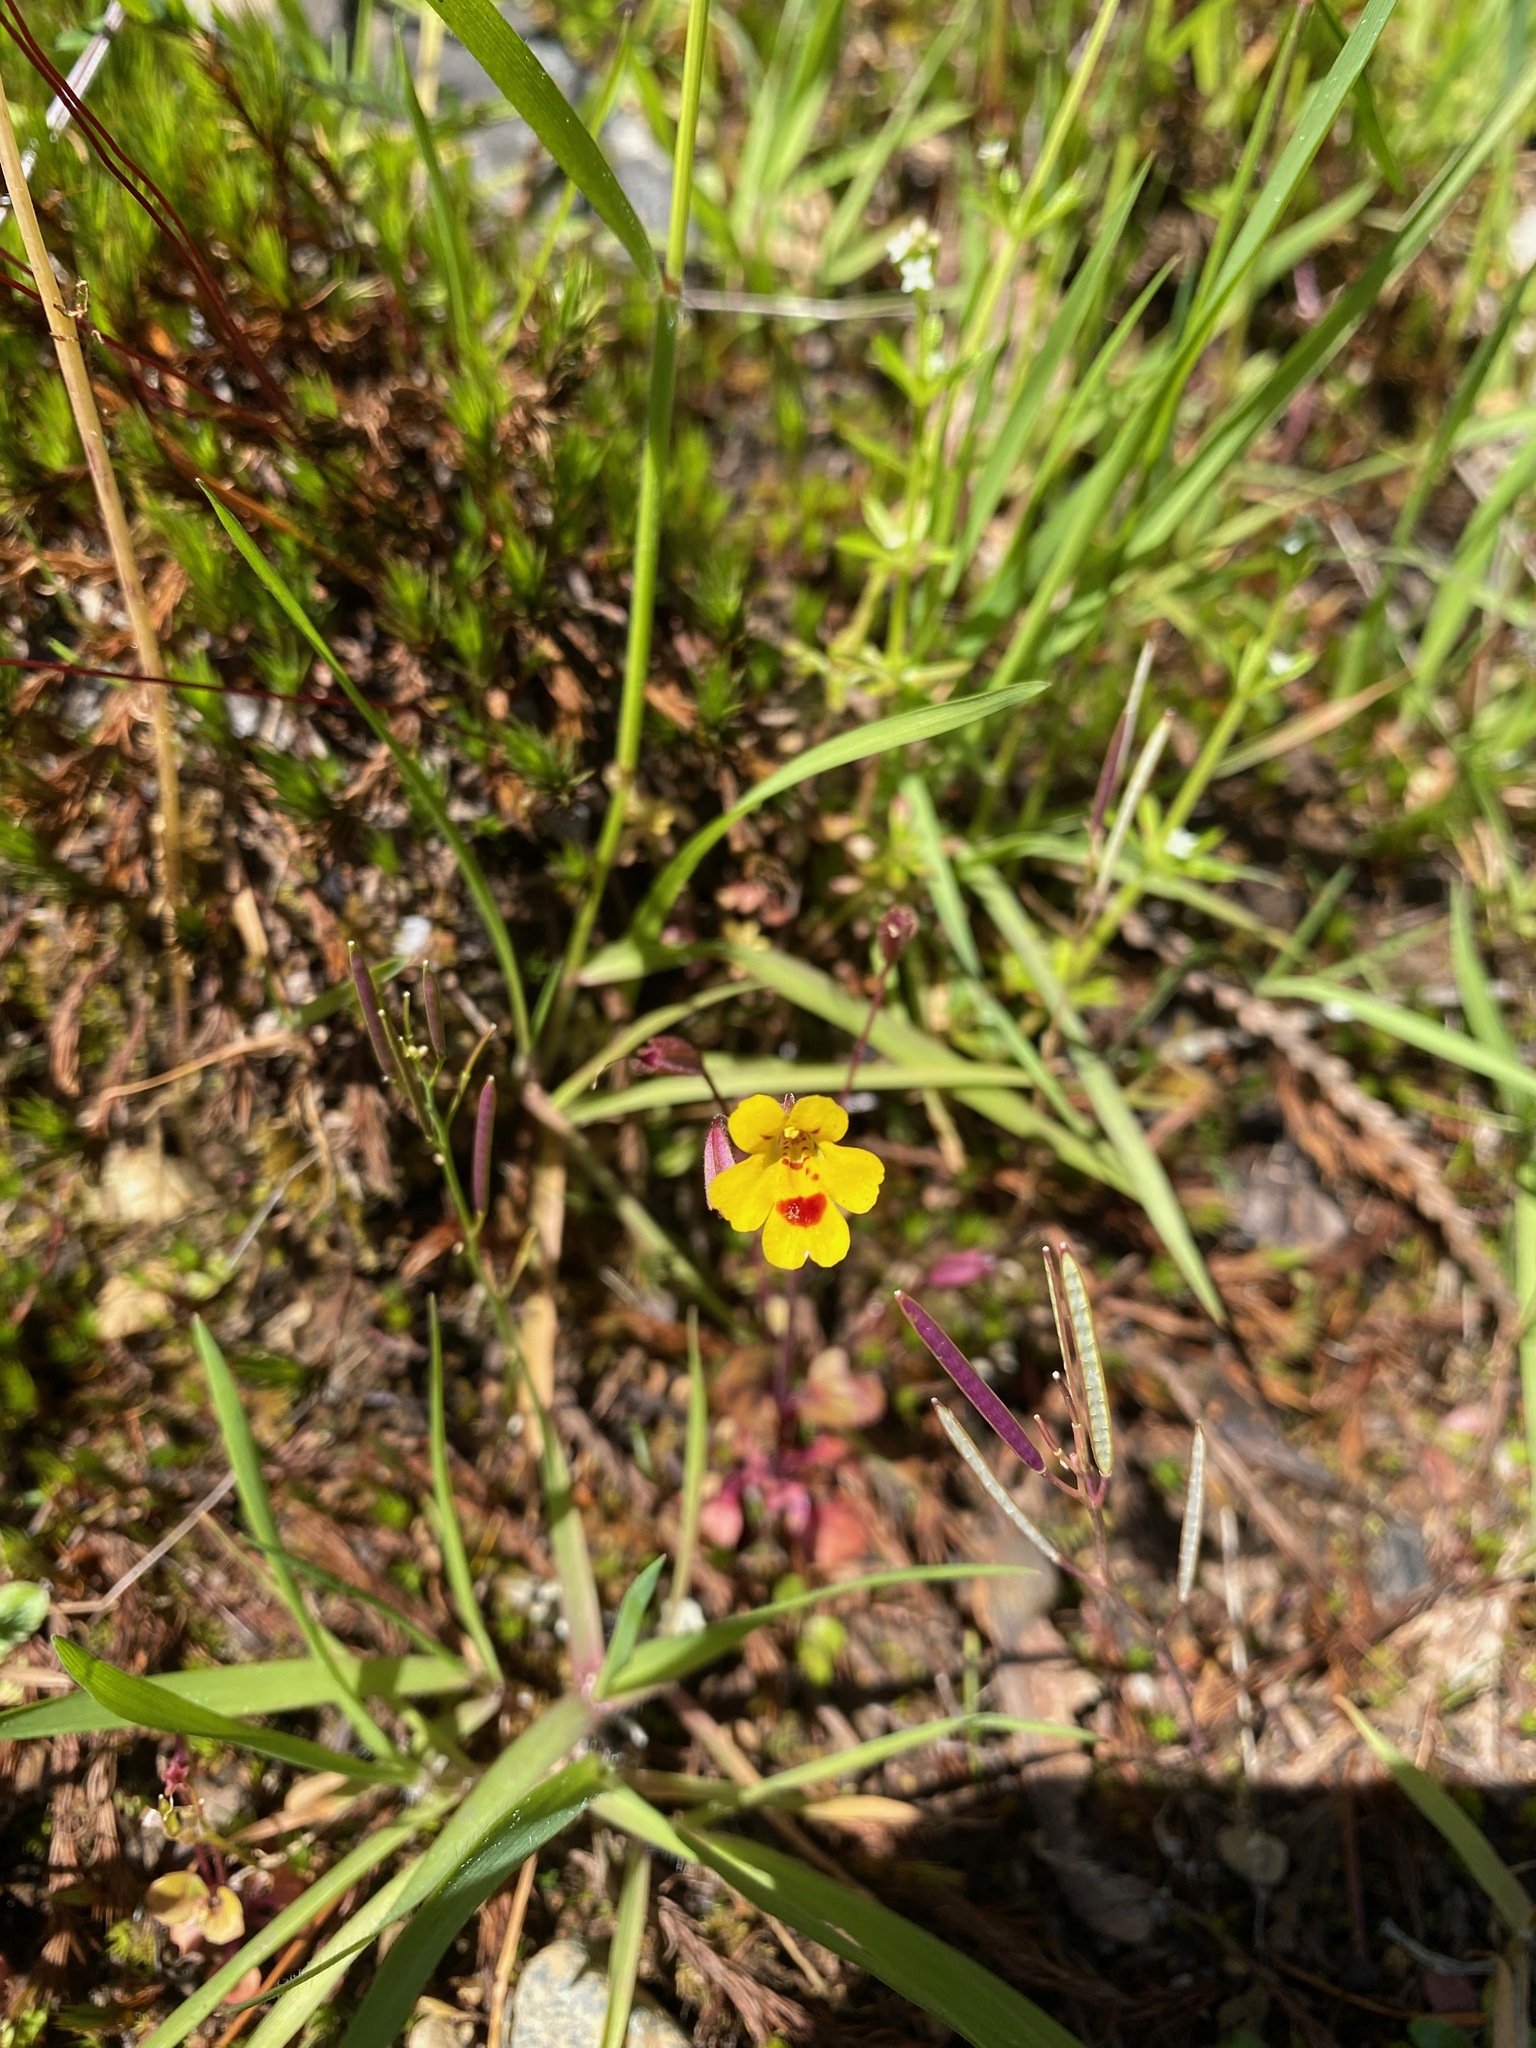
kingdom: Plantae
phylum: Tracheophyta
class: Magnoliopsida
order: Lamiales
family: Phrymaceae
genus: Erythranthe
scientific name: Erythranthe alsinoides
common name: Chickweed monkeyflower
